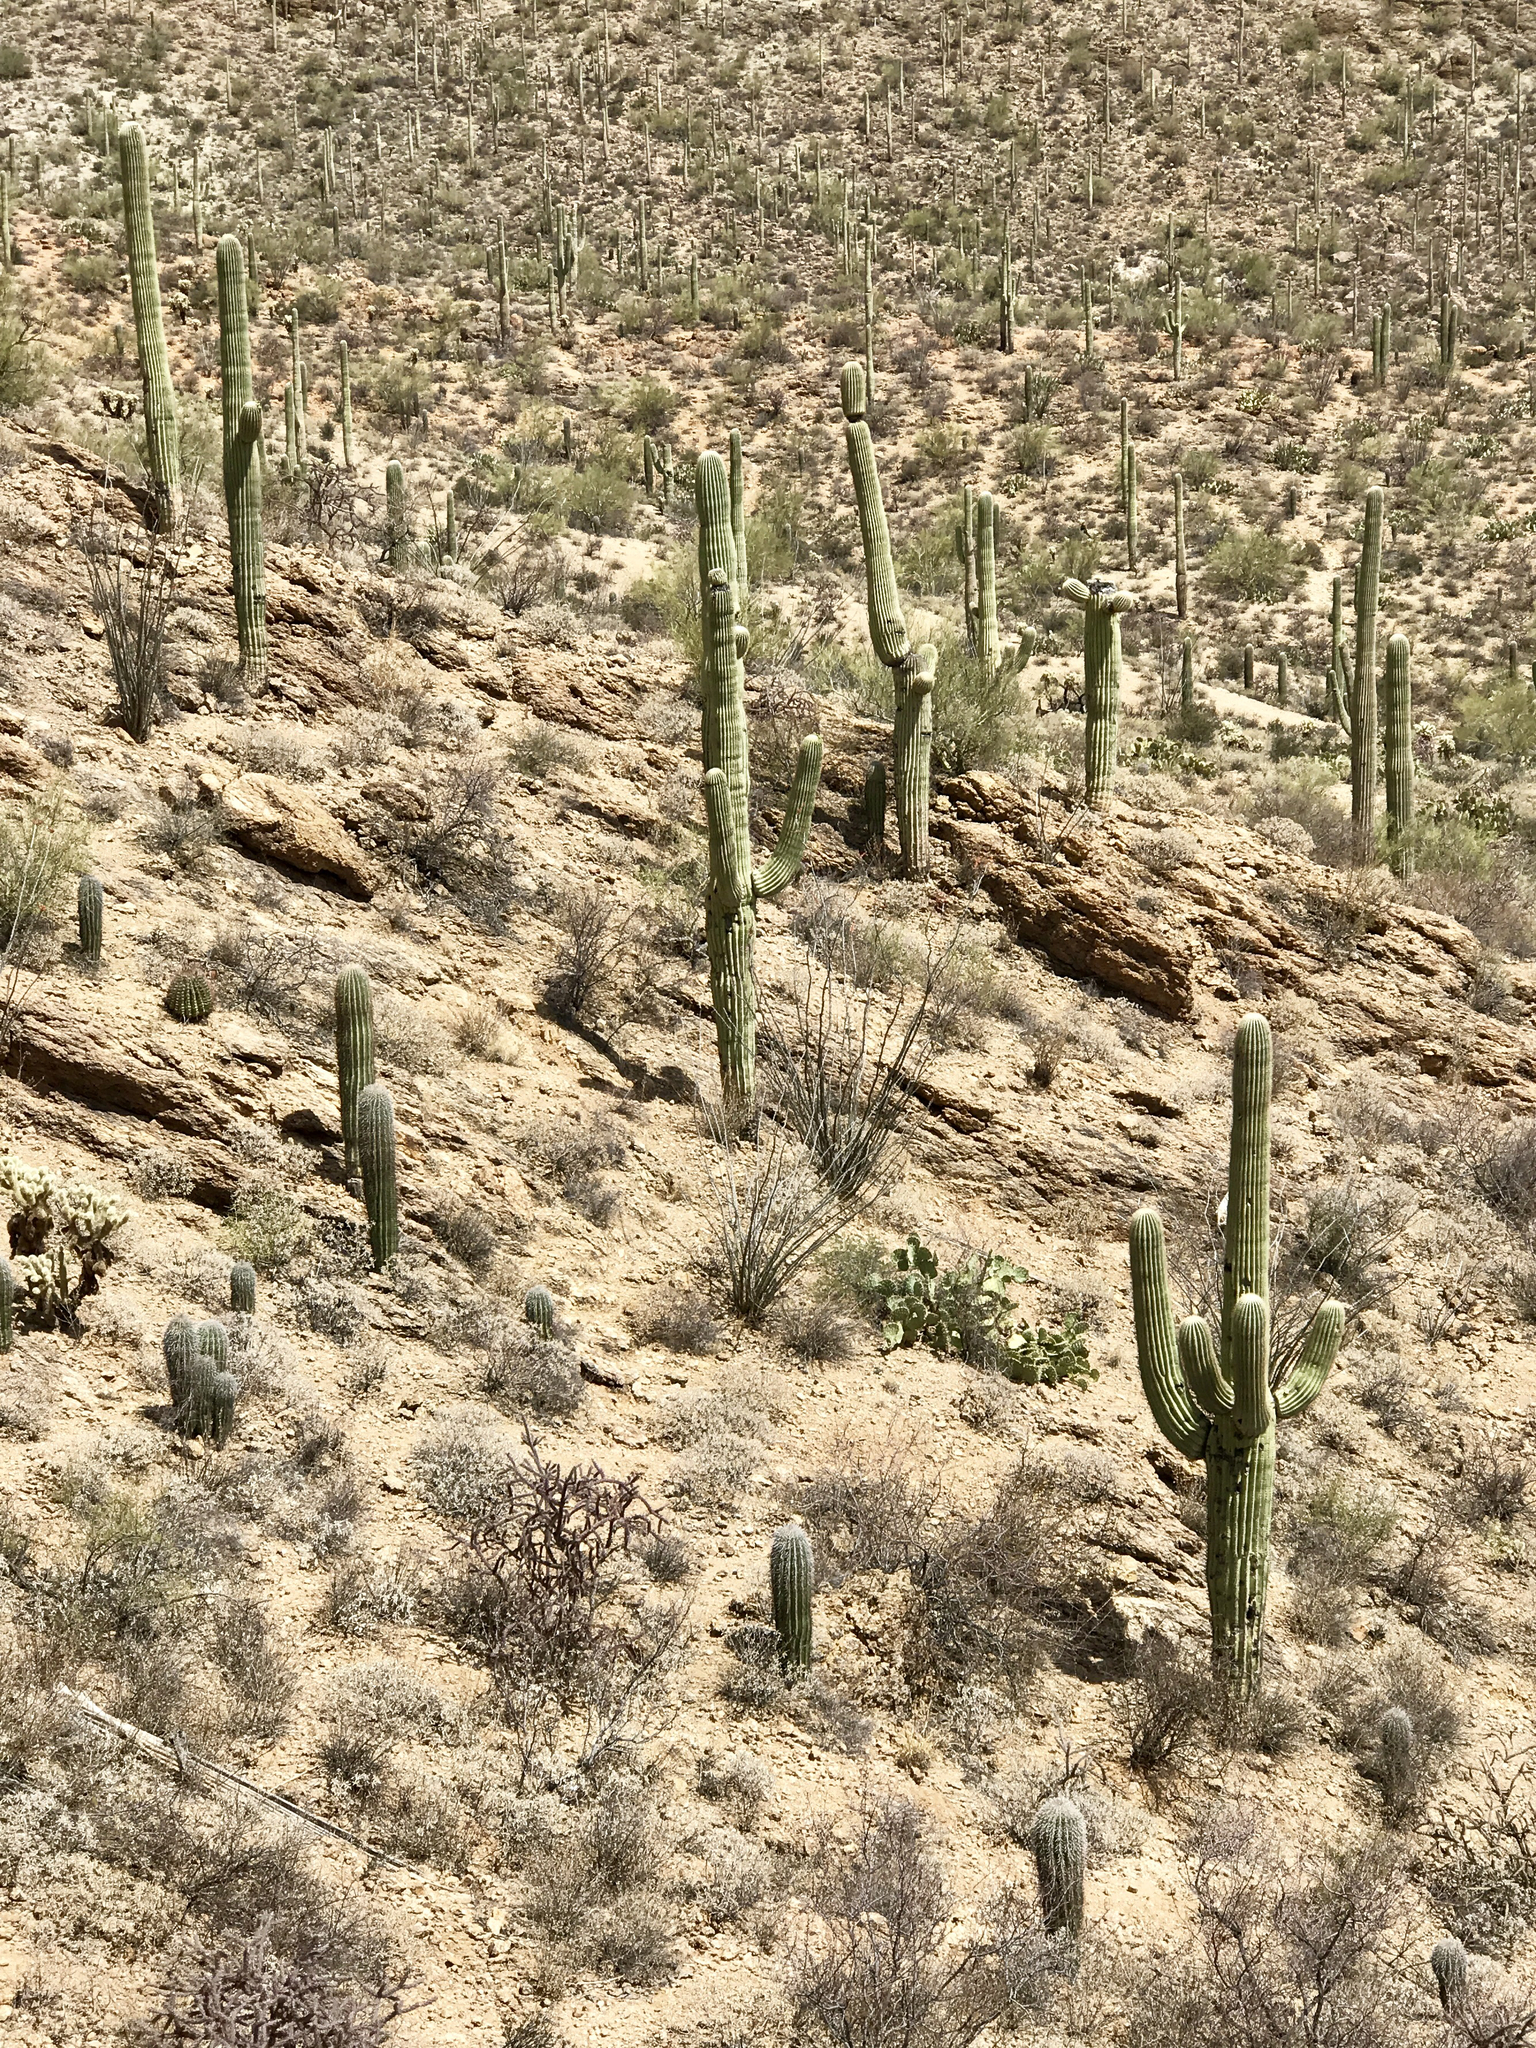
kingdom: Plantae
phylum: Tracheophyta
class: Magnoliopsida
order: Caryophyllales
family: Cactaceae
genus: Carnegiea
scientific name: Carnegiea gigantea
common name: Saguaro
